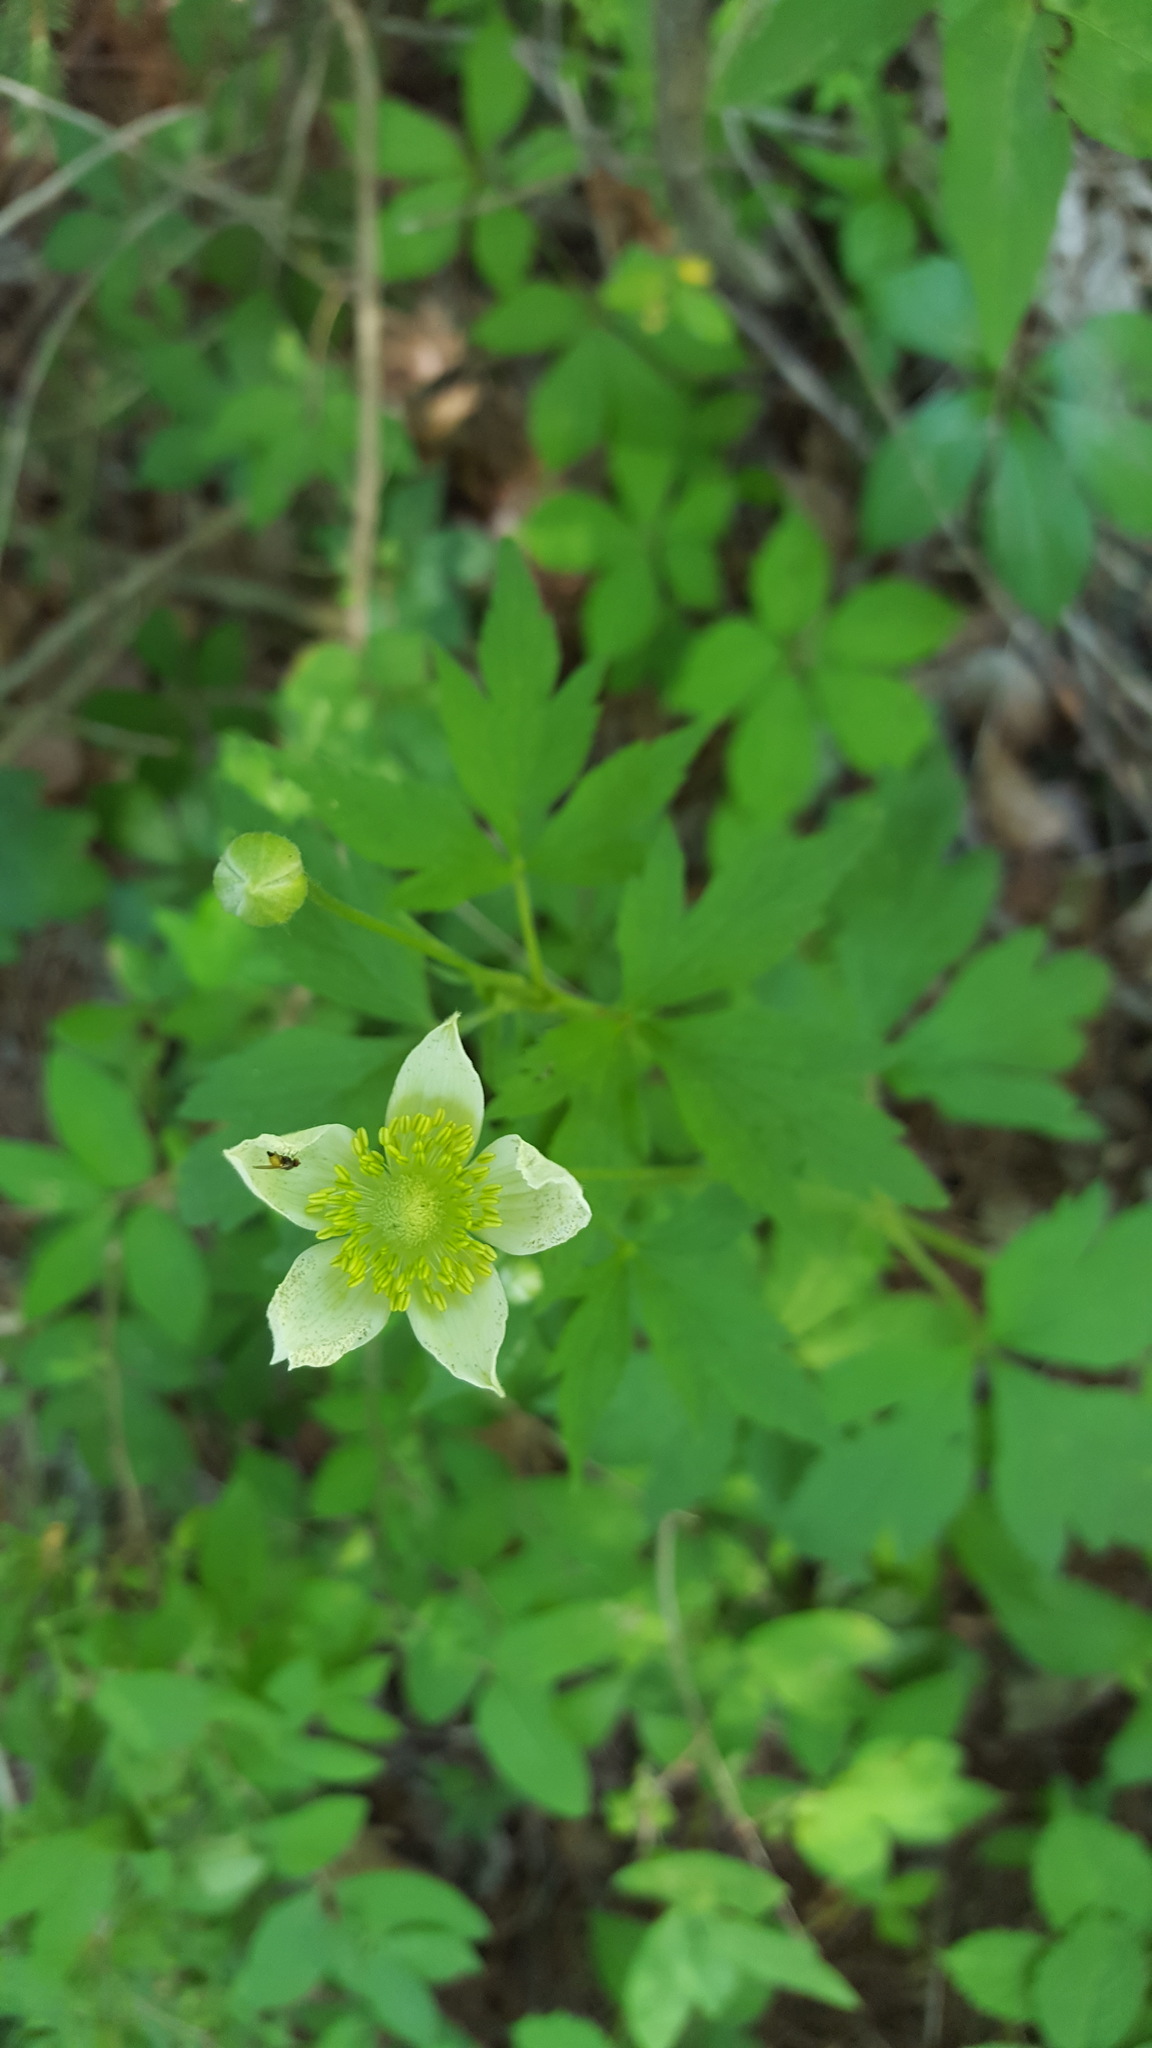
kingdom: Plantae
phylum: Tracheophyta
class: Magnoliopsida
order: Ranunculales
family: Ranunculaceae
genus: Anemone
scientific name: Anemone virginiana
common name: Tall anemone
